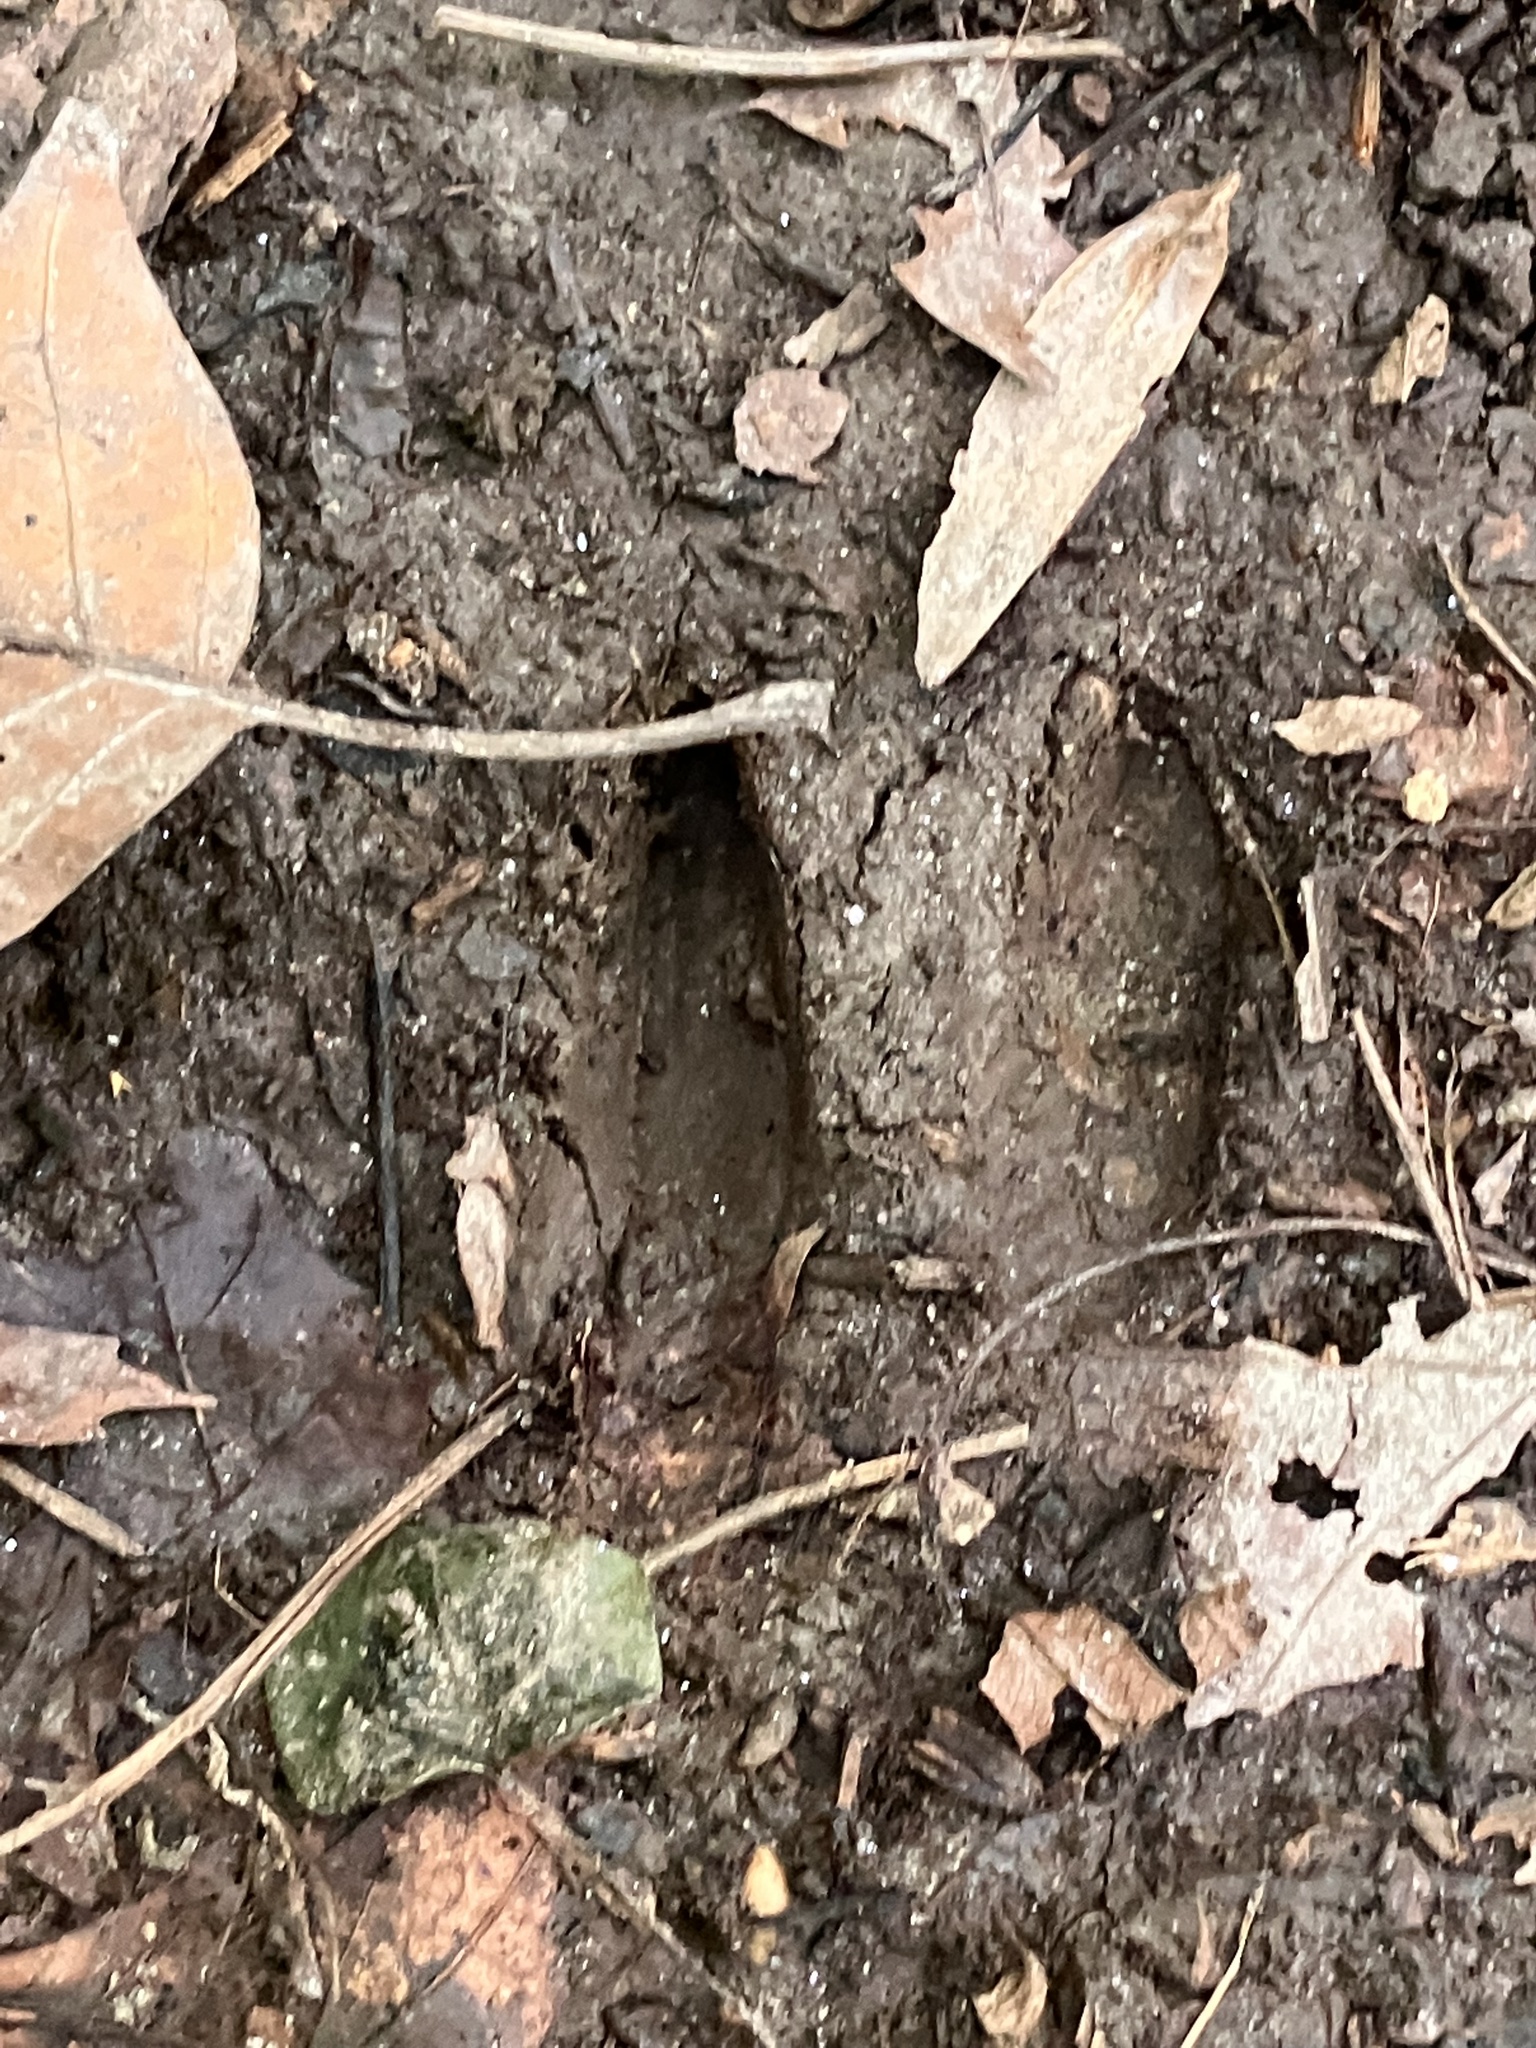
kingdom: Animalia
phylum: Chordata
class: Mammalia
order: Artiodactyla
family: Cervidae
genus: Odocoileus
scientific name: Odocoileus virginianus
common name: White-tailed deer
